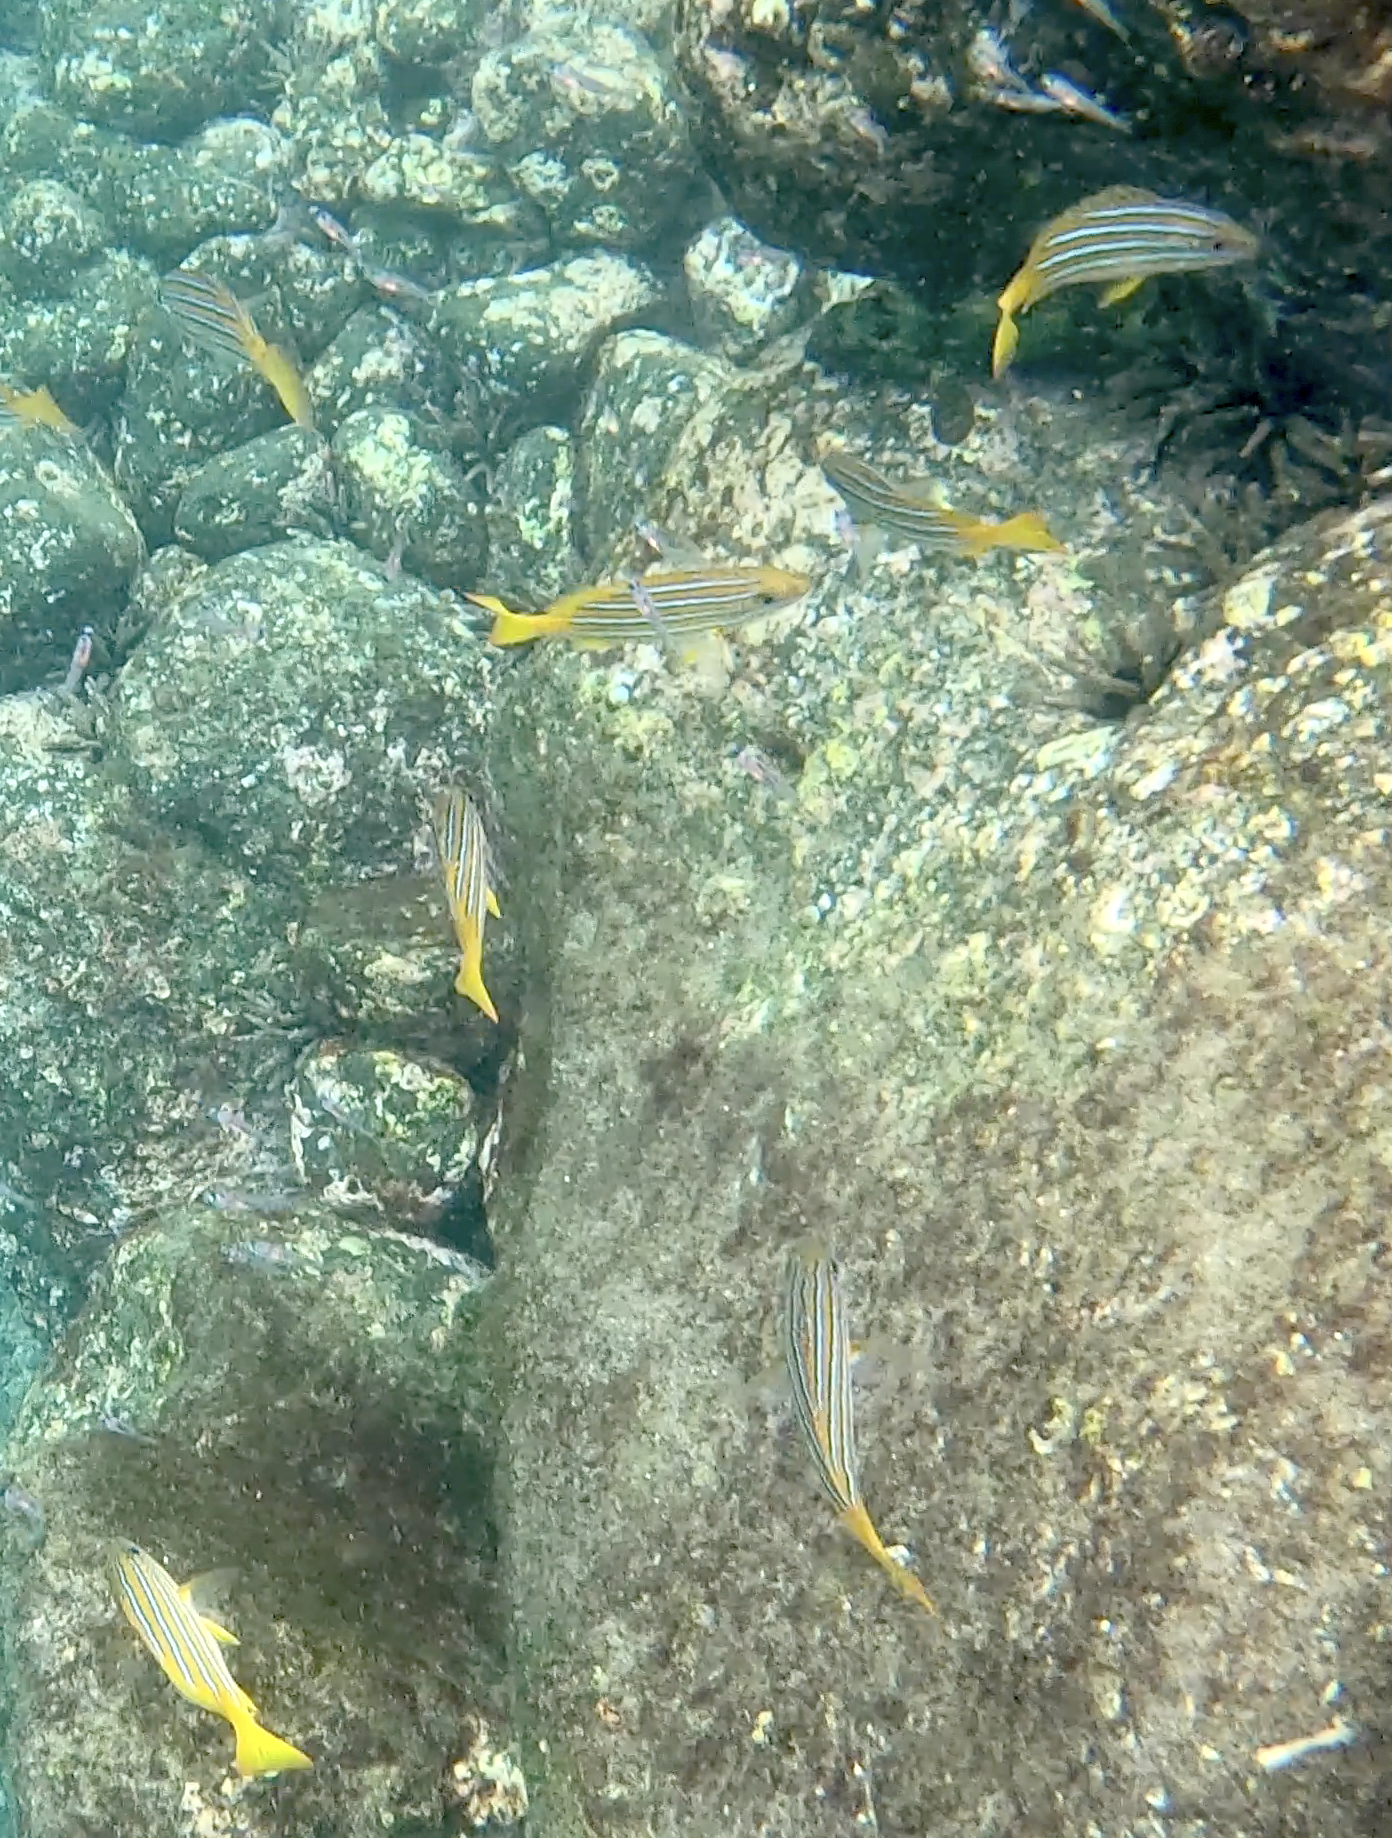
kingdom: Animalia
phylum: Chordata
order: Perciformes
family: Lutjanidae
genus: Lutjanus
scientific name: Lutjanus viridis
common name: Blue and gold snapper
